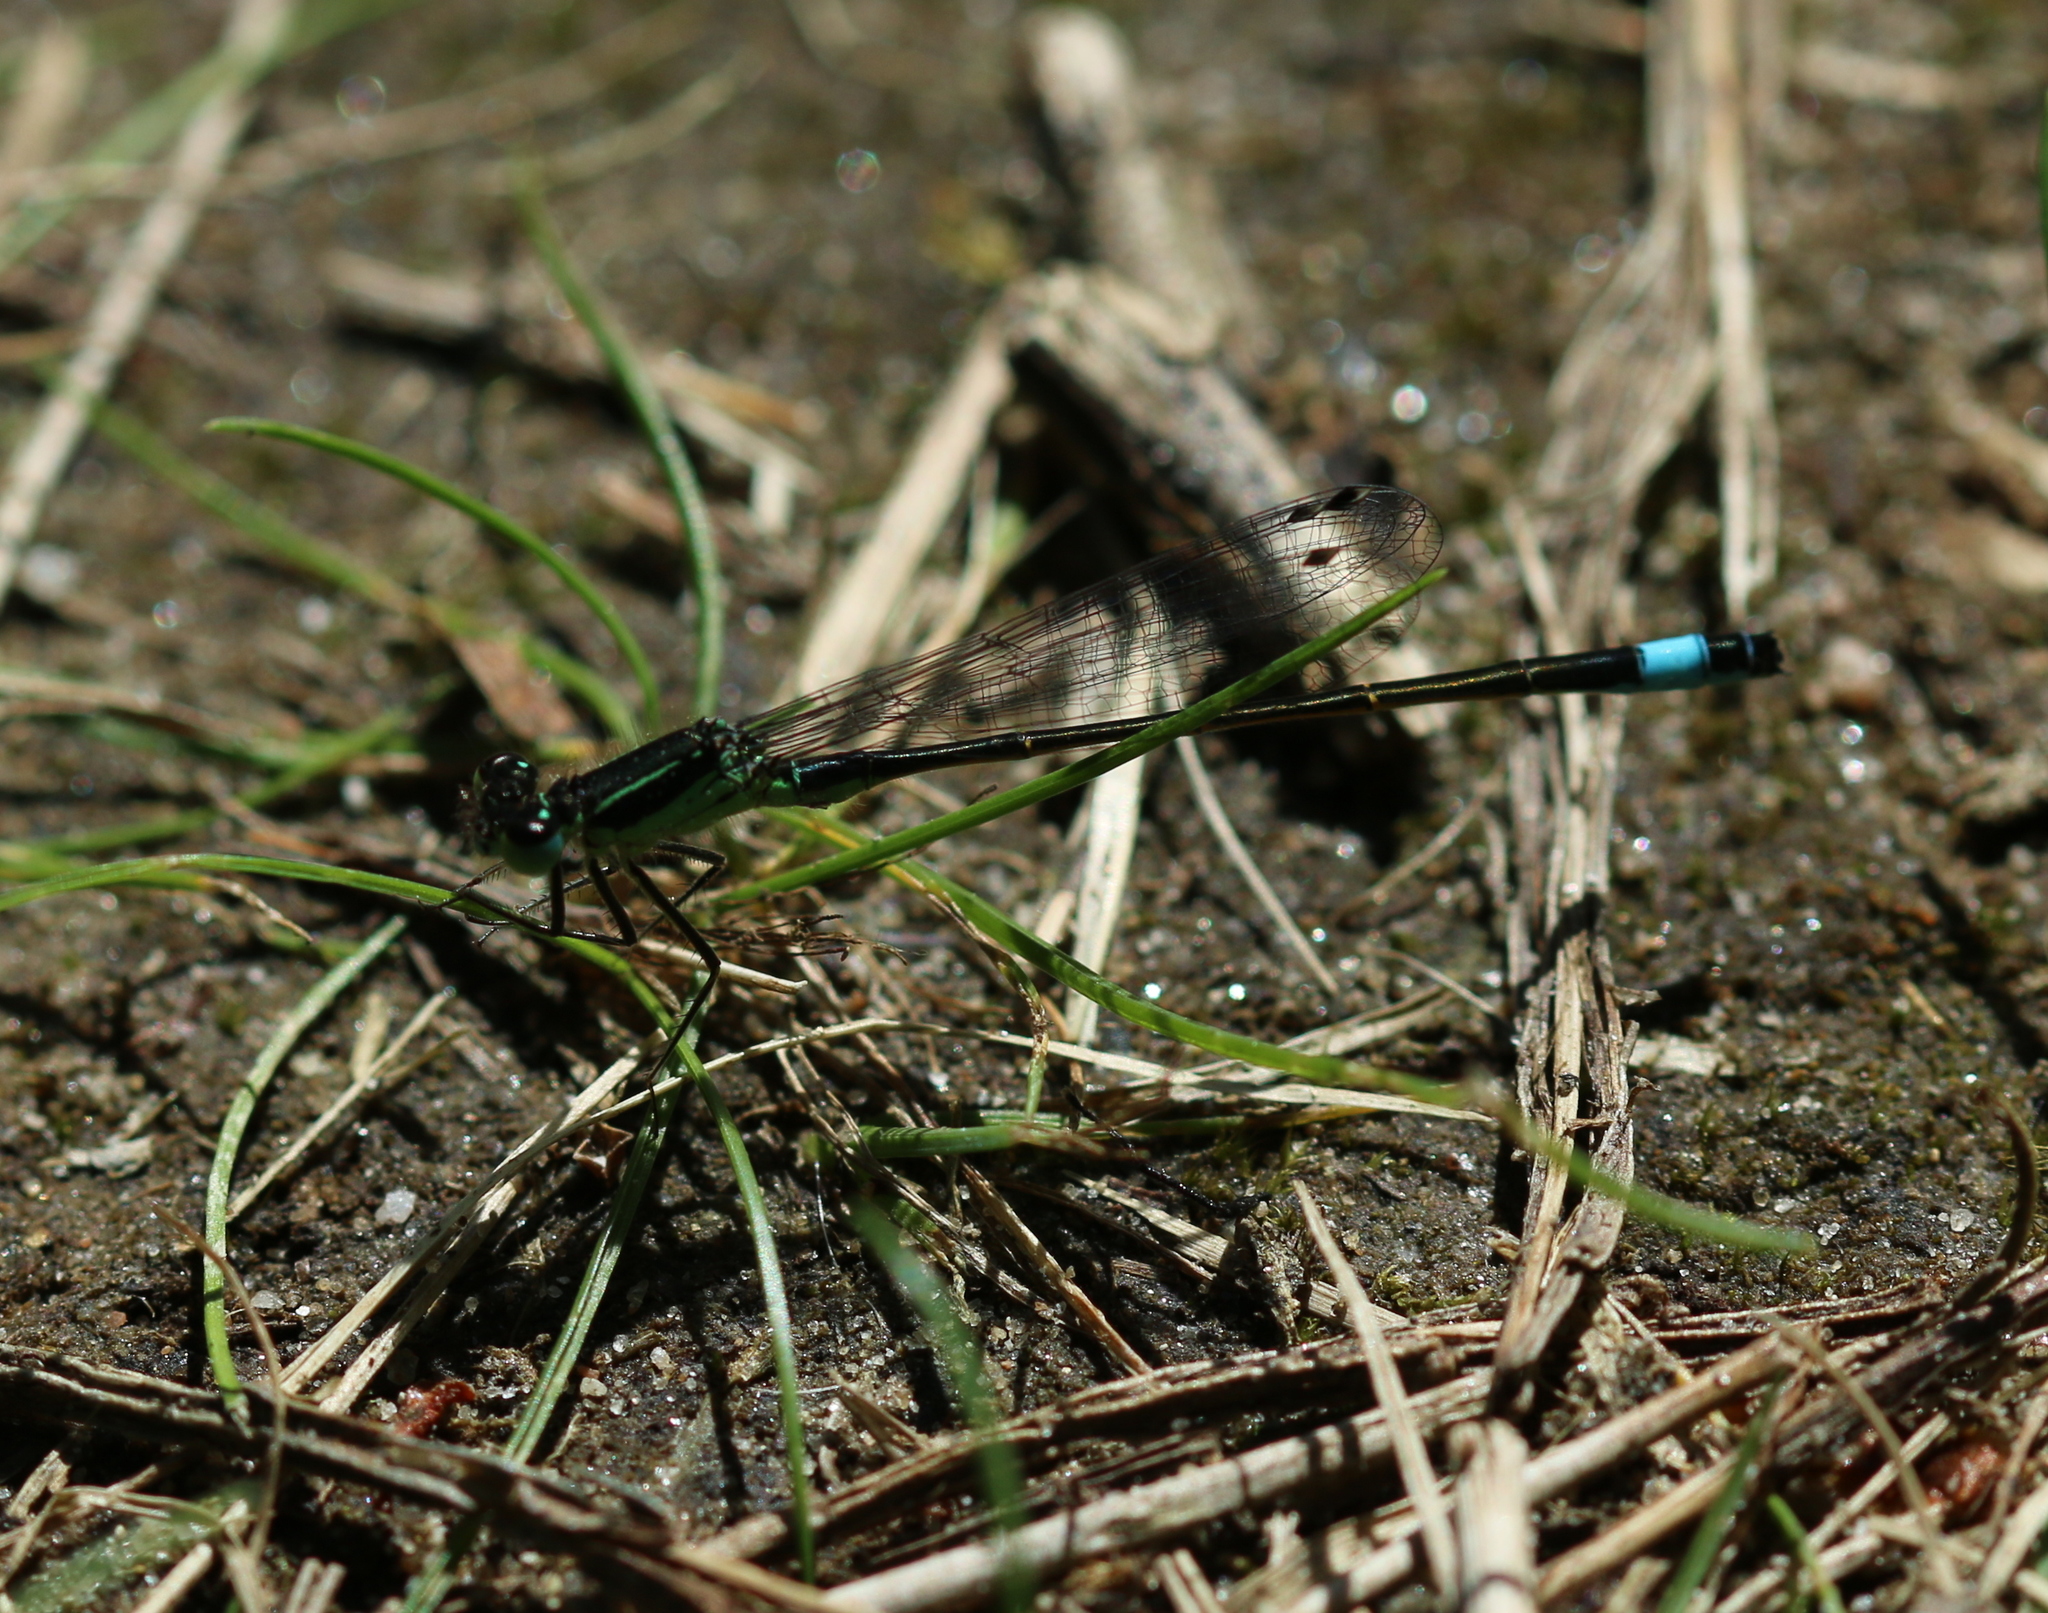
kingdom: Animalia
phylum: Arthropoda
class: Insecta
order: Odonata
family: Coenagrionidae
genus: Ischnura
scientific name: Ischnura elegans
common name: Blue-tailed damselfly
